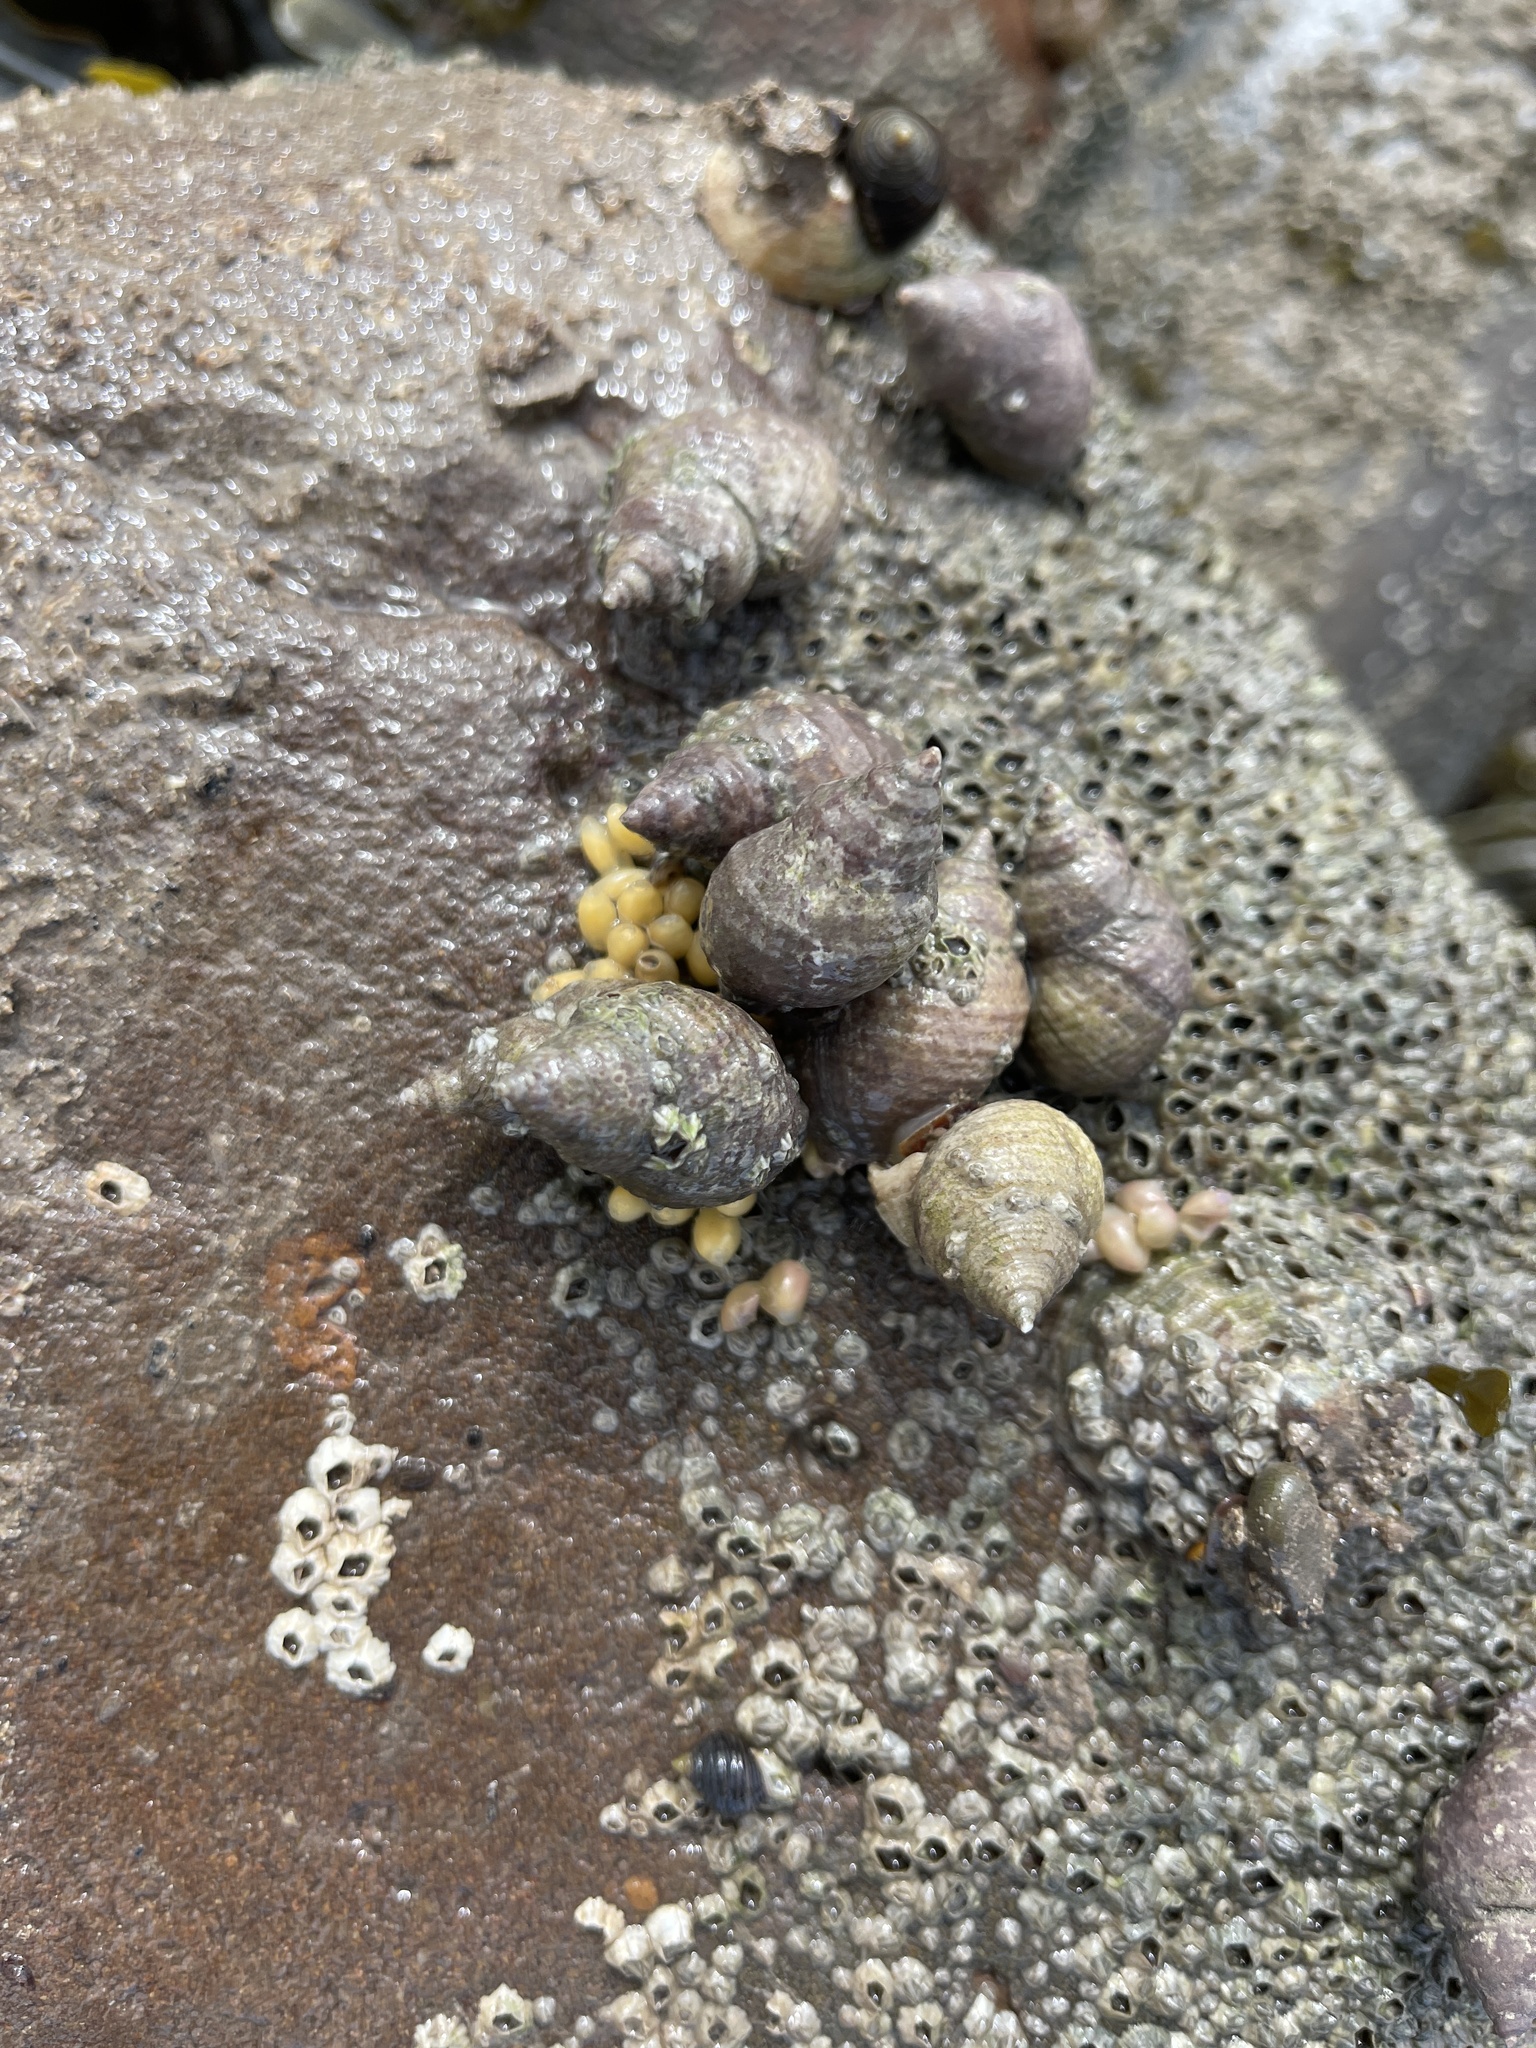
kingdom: Animalia
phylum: Mollusca
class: Gastropoda
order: Neogastropoda
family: Muricidae
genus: Nucella
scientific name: Nucella lapillus
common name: Dog whelk
